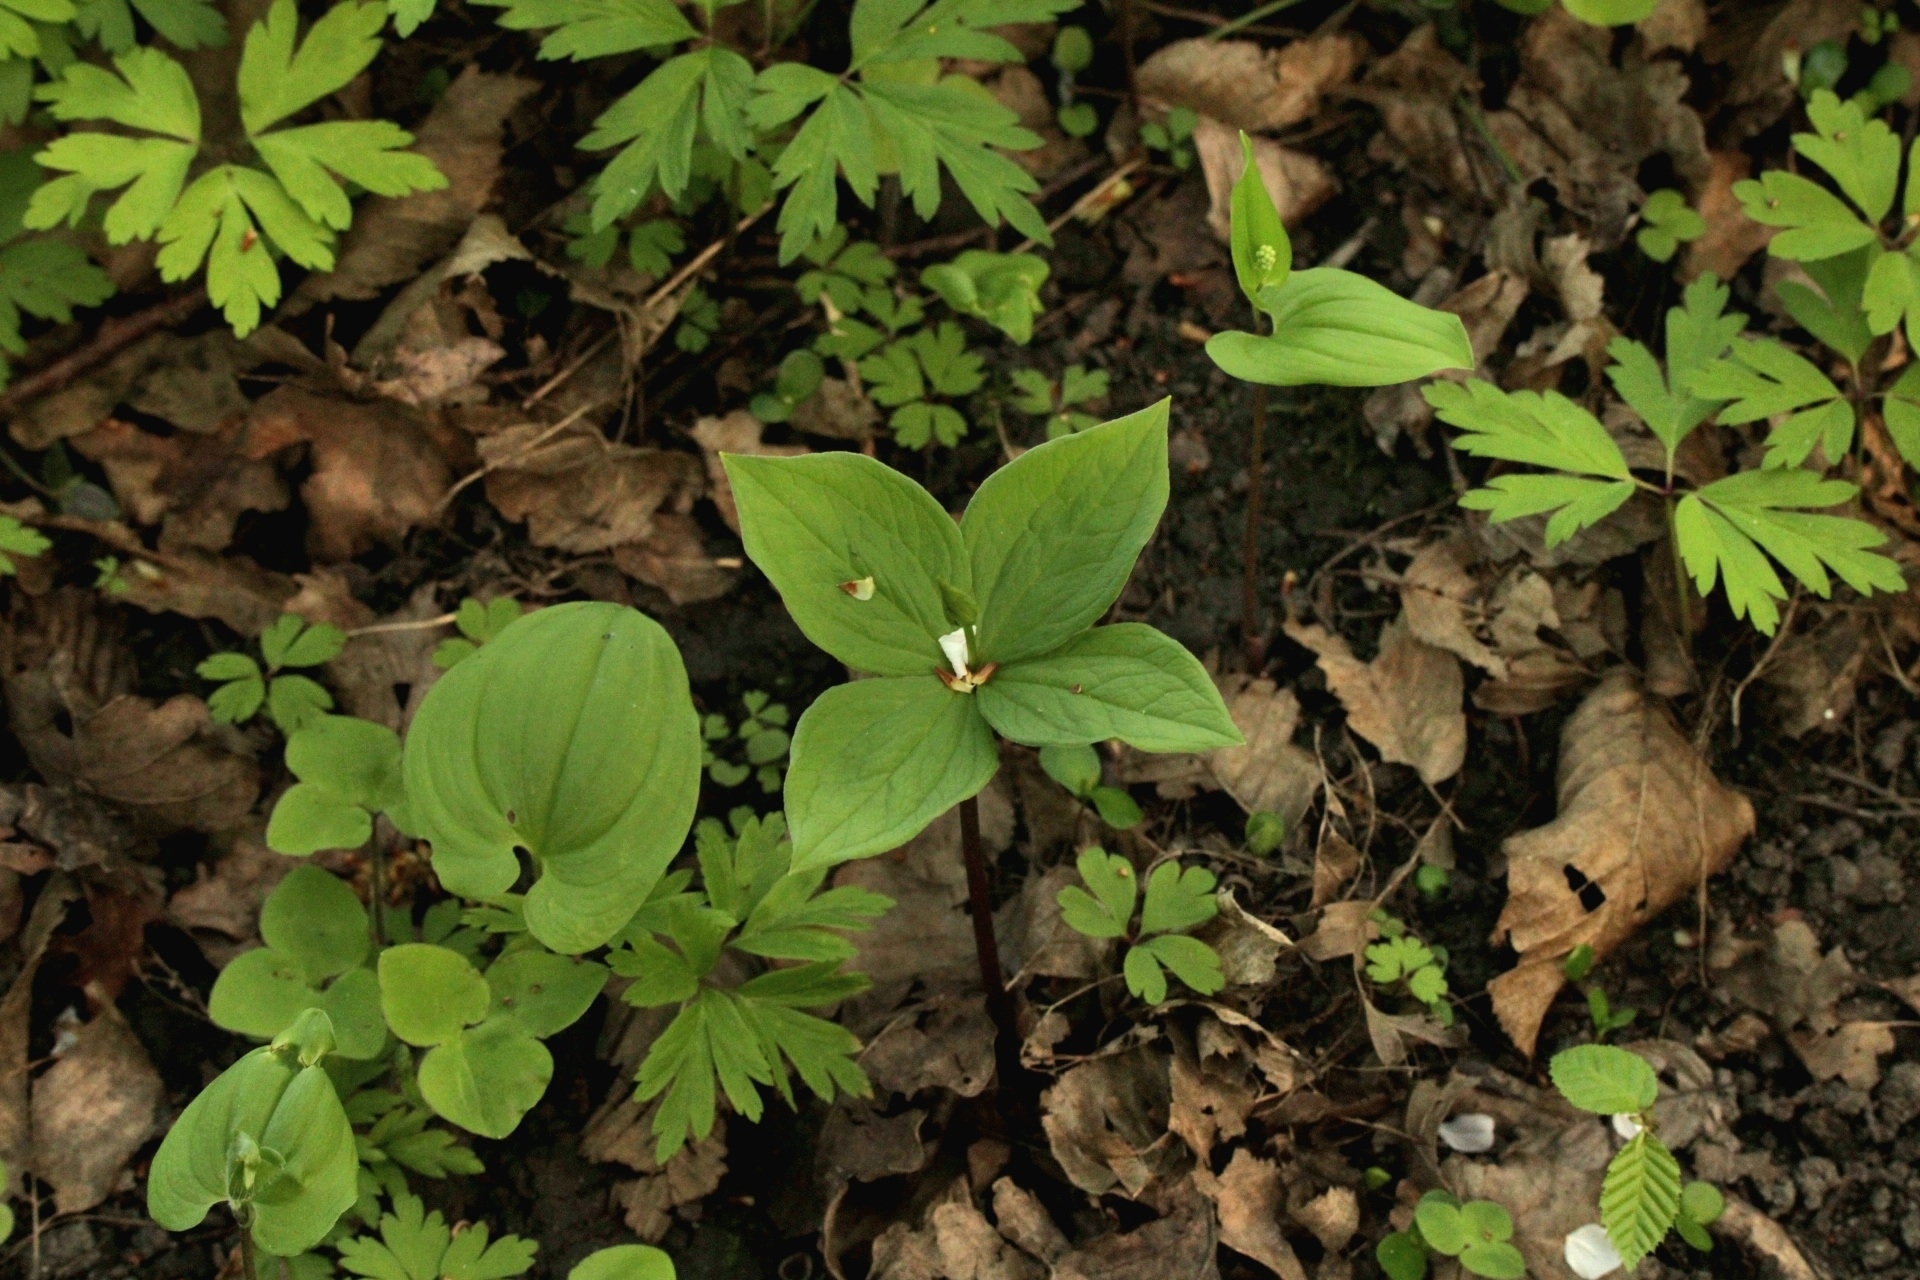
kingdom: Plantae
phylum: Tracheophyta
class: Liliopsida
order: Liliales
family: Melanthiaceae
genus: Paris
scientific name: Paris quadrifolia
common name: Herb-paris
